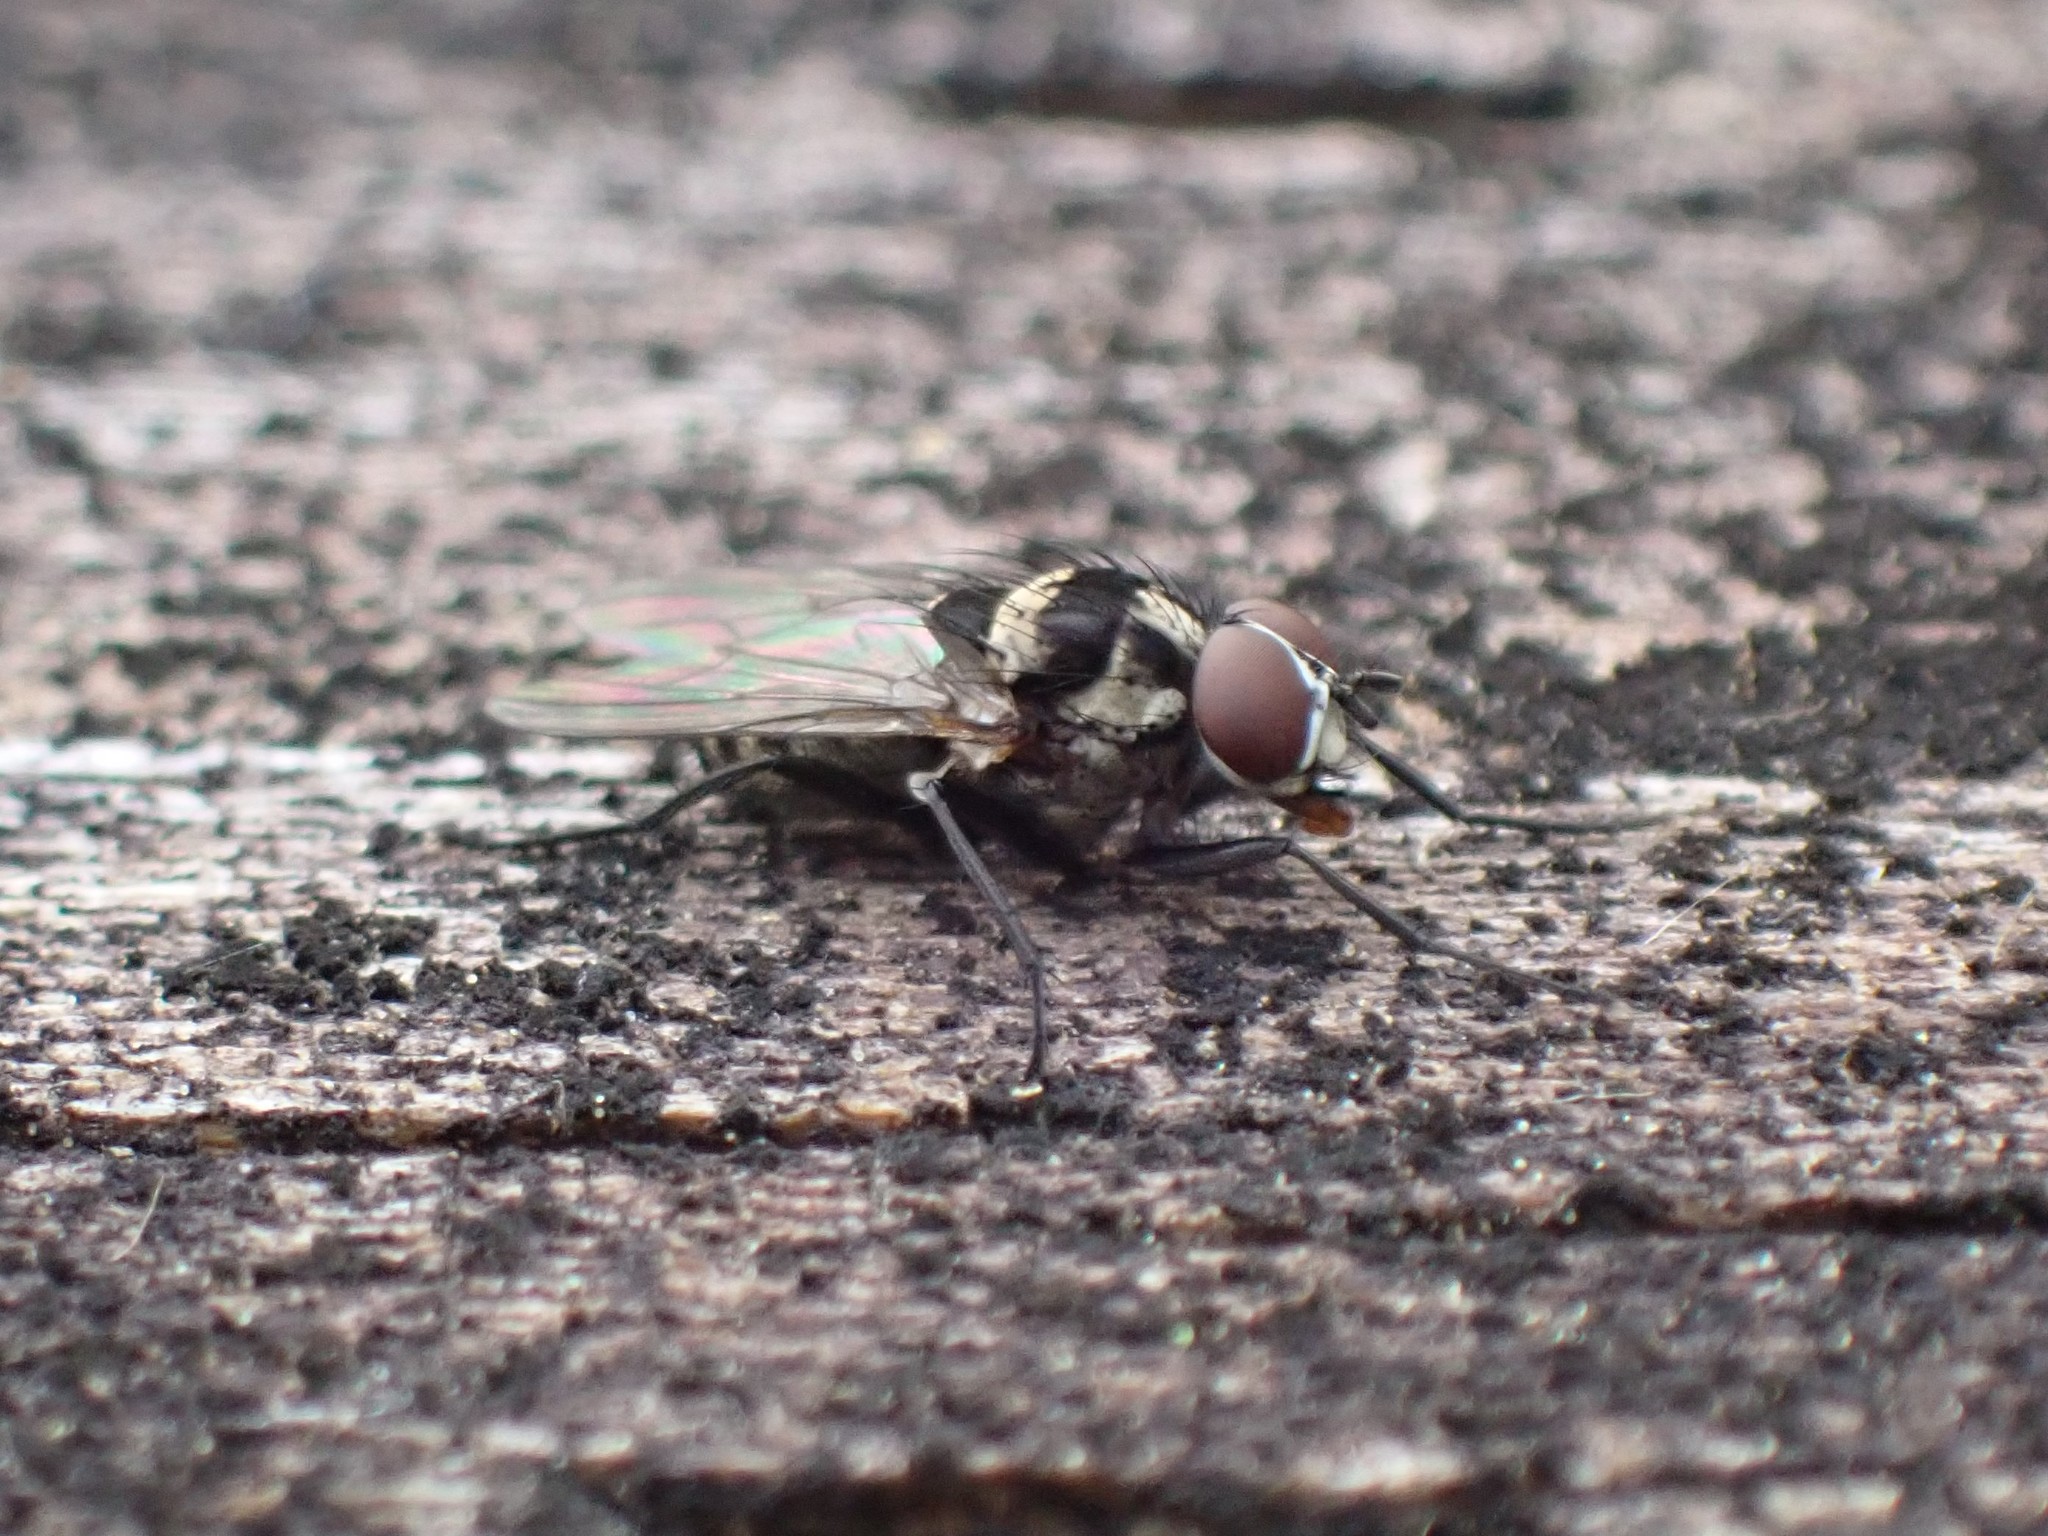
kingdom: Animalia
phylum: Arthropoda
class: Insecta
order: Diptera
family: Anthomyiidae
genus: Anthomyia
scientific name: Anthomyia oculifera
